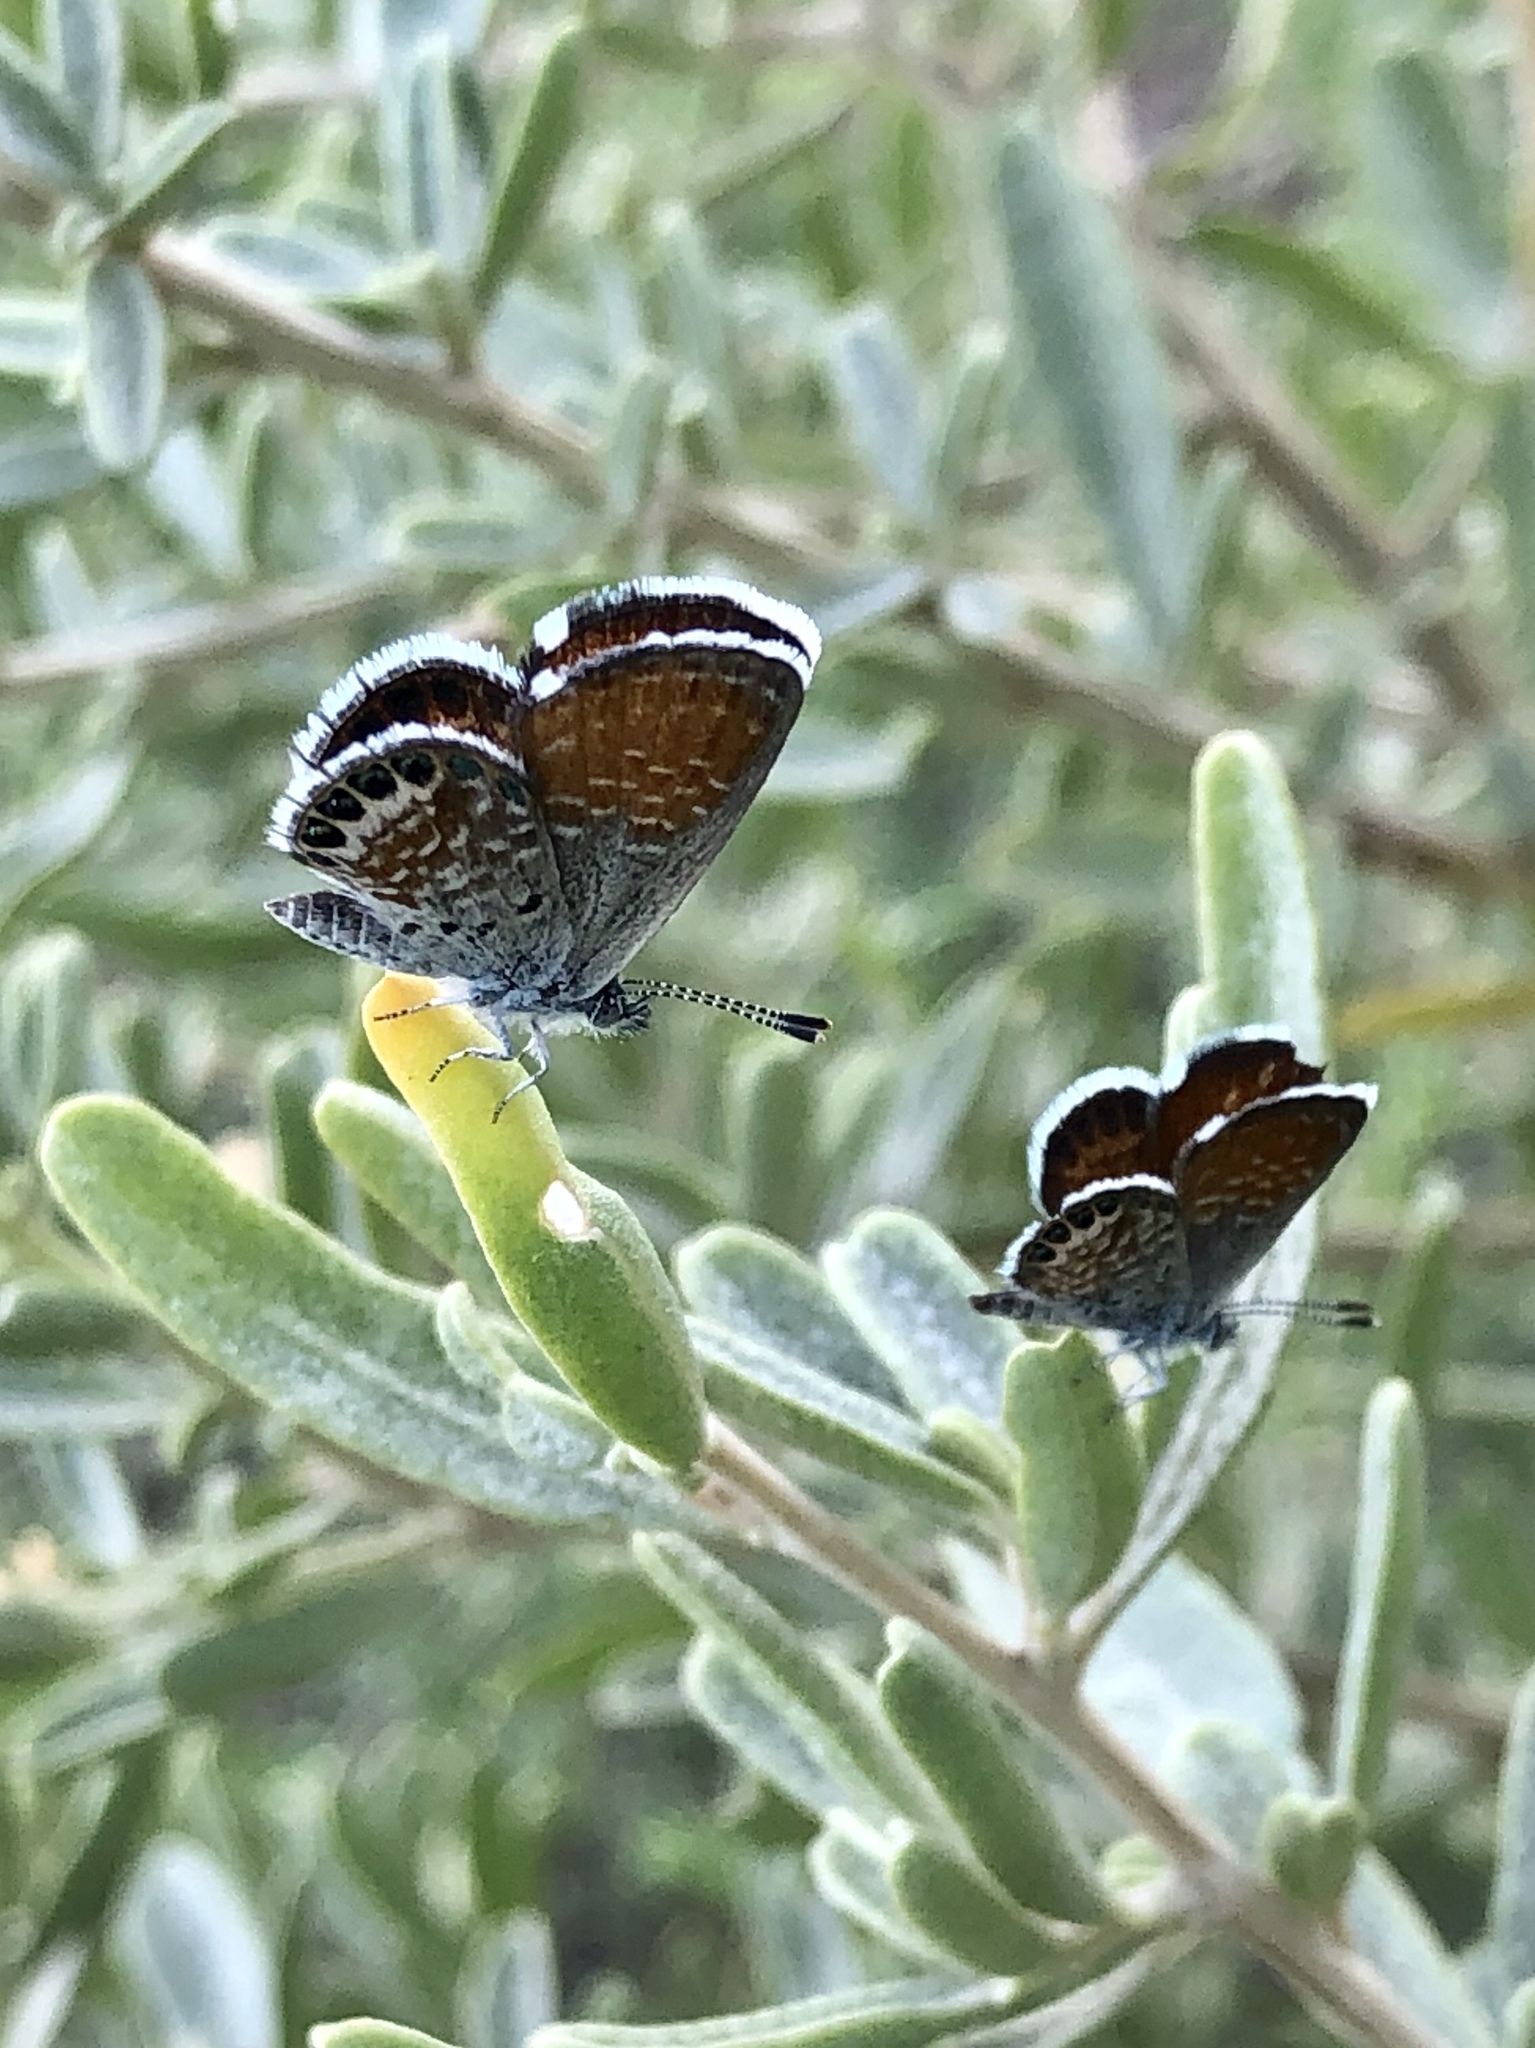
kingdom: Animalia
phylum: Arthropoda
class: Insecta
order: Lepidoptera
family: Lycaenidae
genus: Brephidium
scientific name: Brephidium exilis
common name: Pygmy blue
